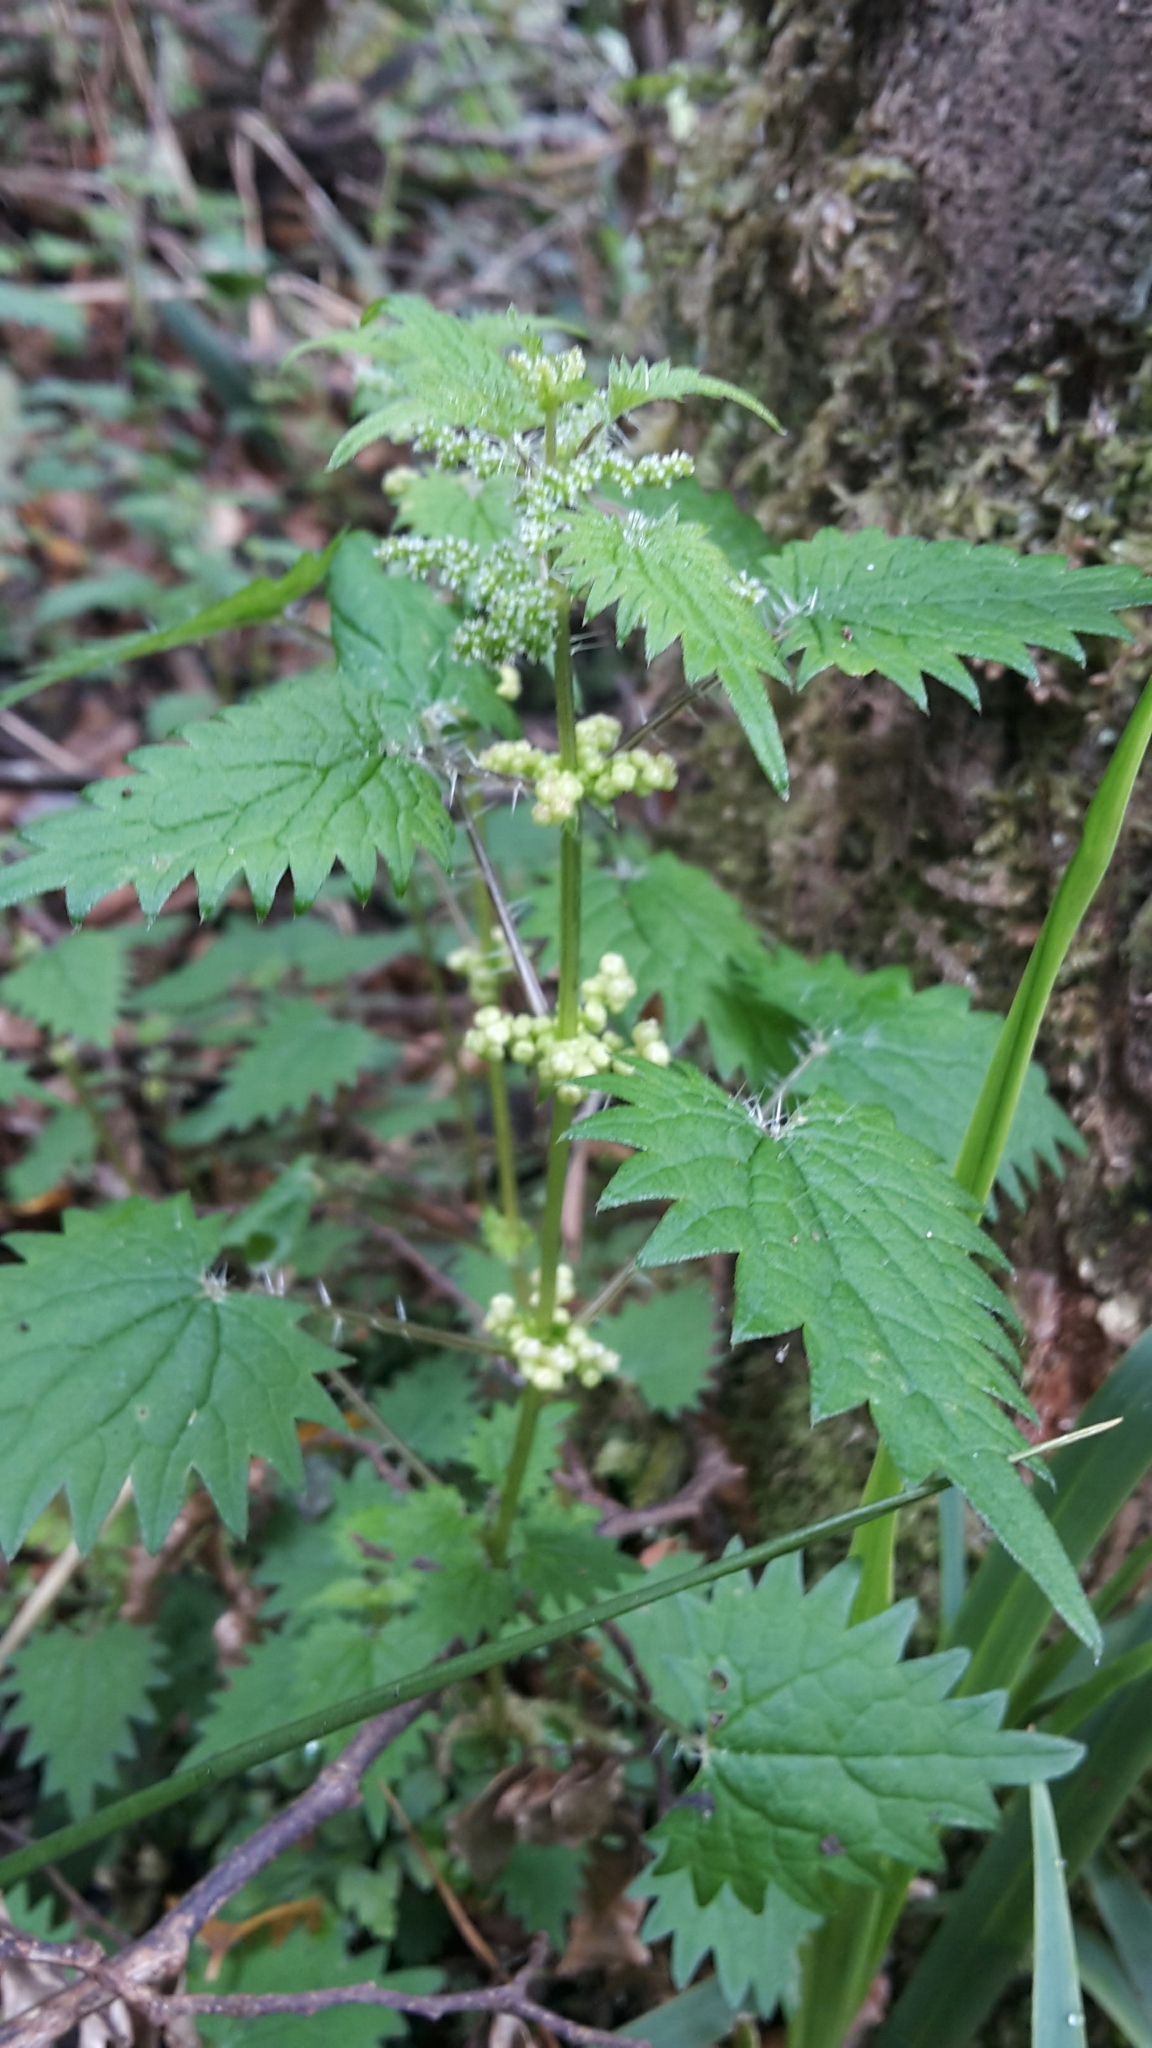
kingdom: Plantae
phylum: Tracheophyta
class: Magnoliopsida
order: Rosales
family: Urticaceae
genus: Urtica
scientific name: Urtica sykesii
